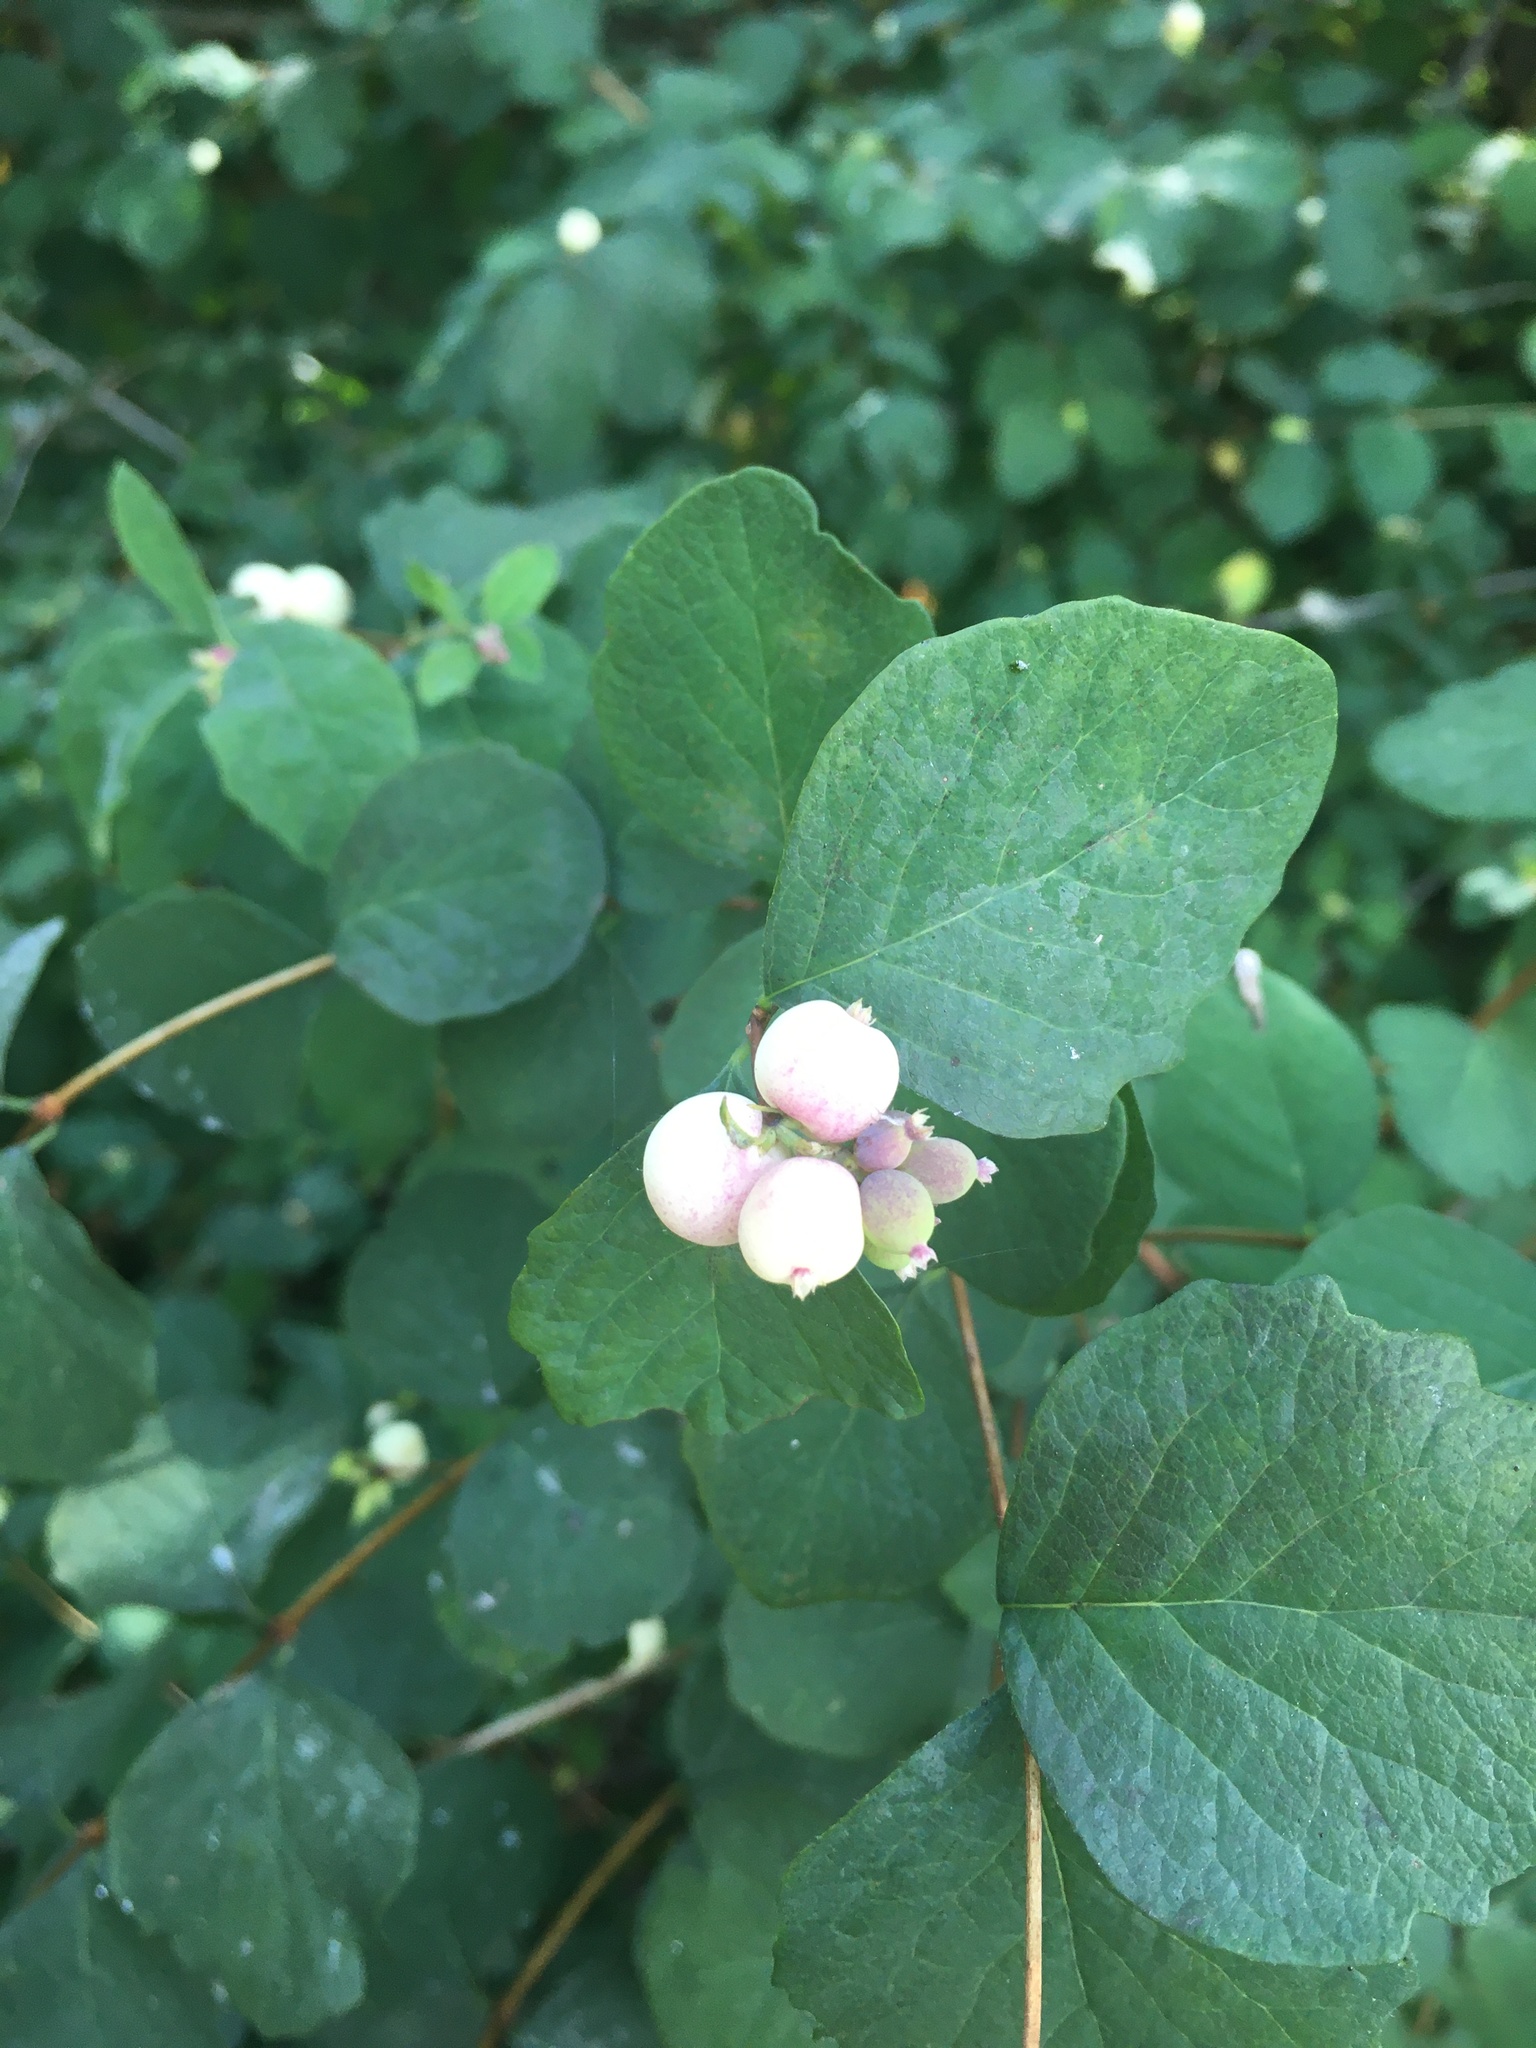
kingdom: Plantae
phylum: Tracheophyta
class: Magnoliopsida
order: Dipsacales
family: Caprifoliaceae
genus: Symphoricarpos
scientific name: Symphoricarpos albus
